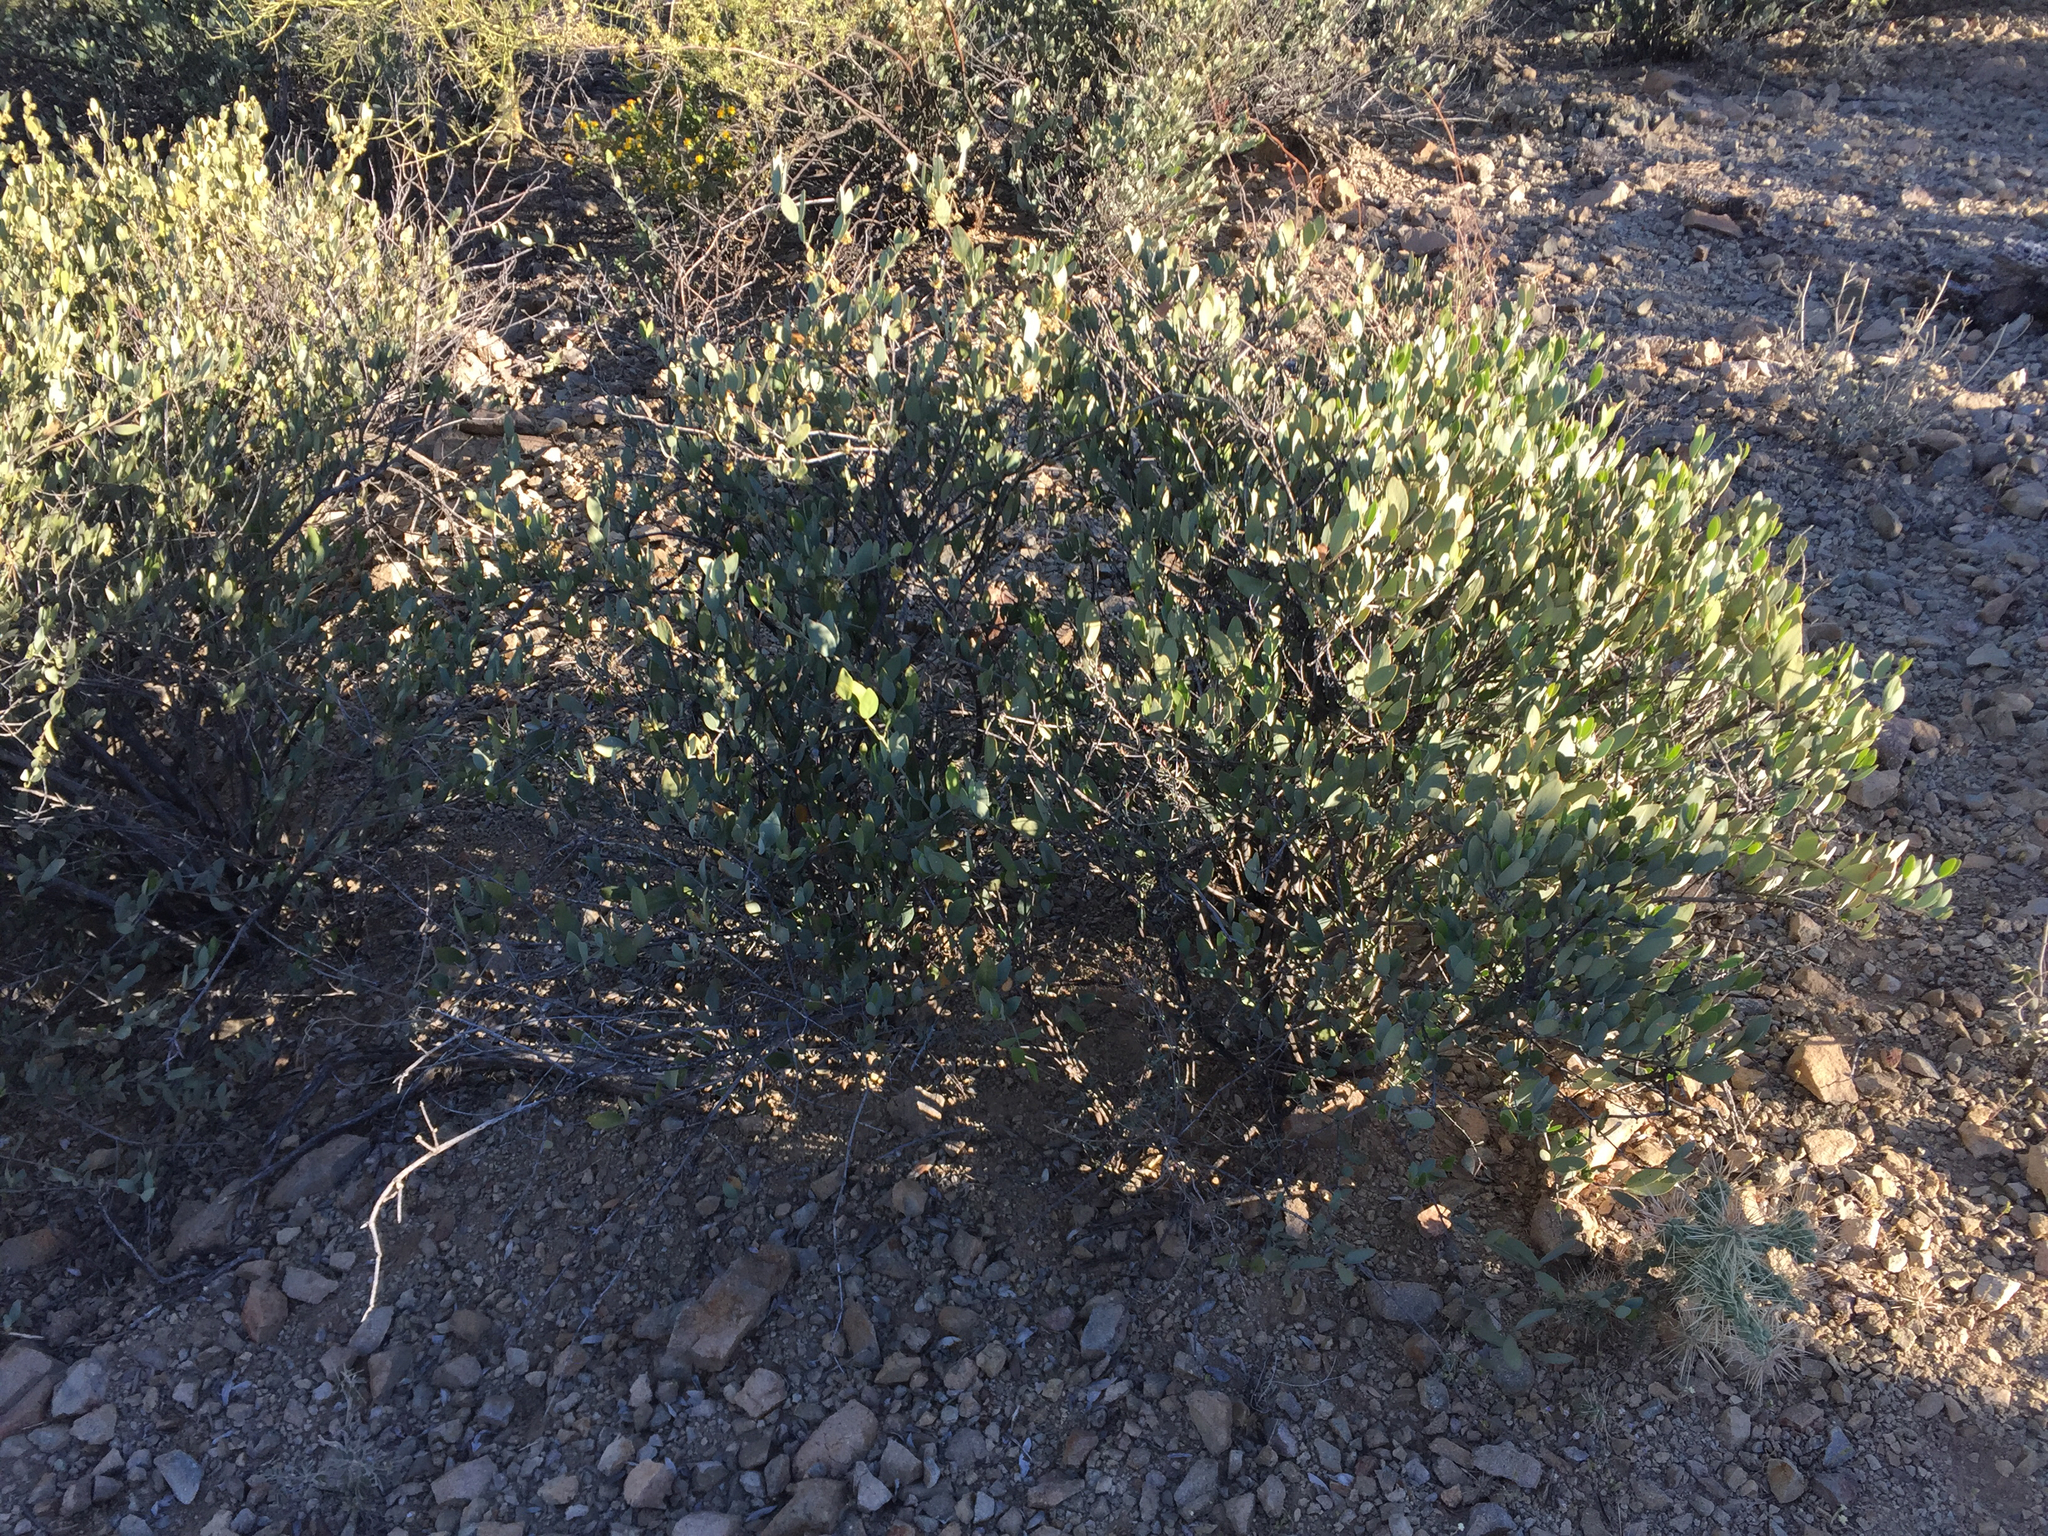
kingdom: Plantae
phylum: Tracheophyta
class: Magnoliopsida
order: Caryophyllales
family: Simmondsiaceae
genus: Simmondsia
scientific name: Simmondsia chinensis
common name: Jojoba
